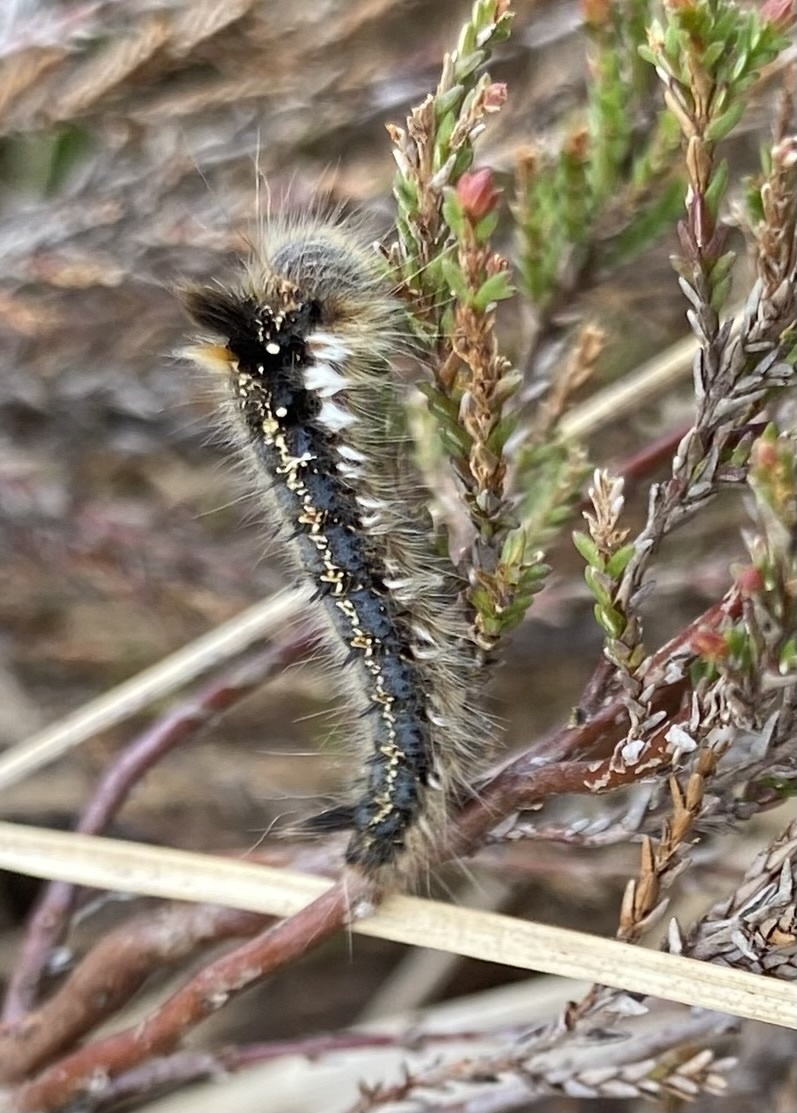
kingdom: Animalia
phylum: Arthropoda
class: Insecta
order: Lepidoptera
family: Lasiocampidae
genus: Euthrix
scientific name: Euthrix potatoria
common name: Drinker
